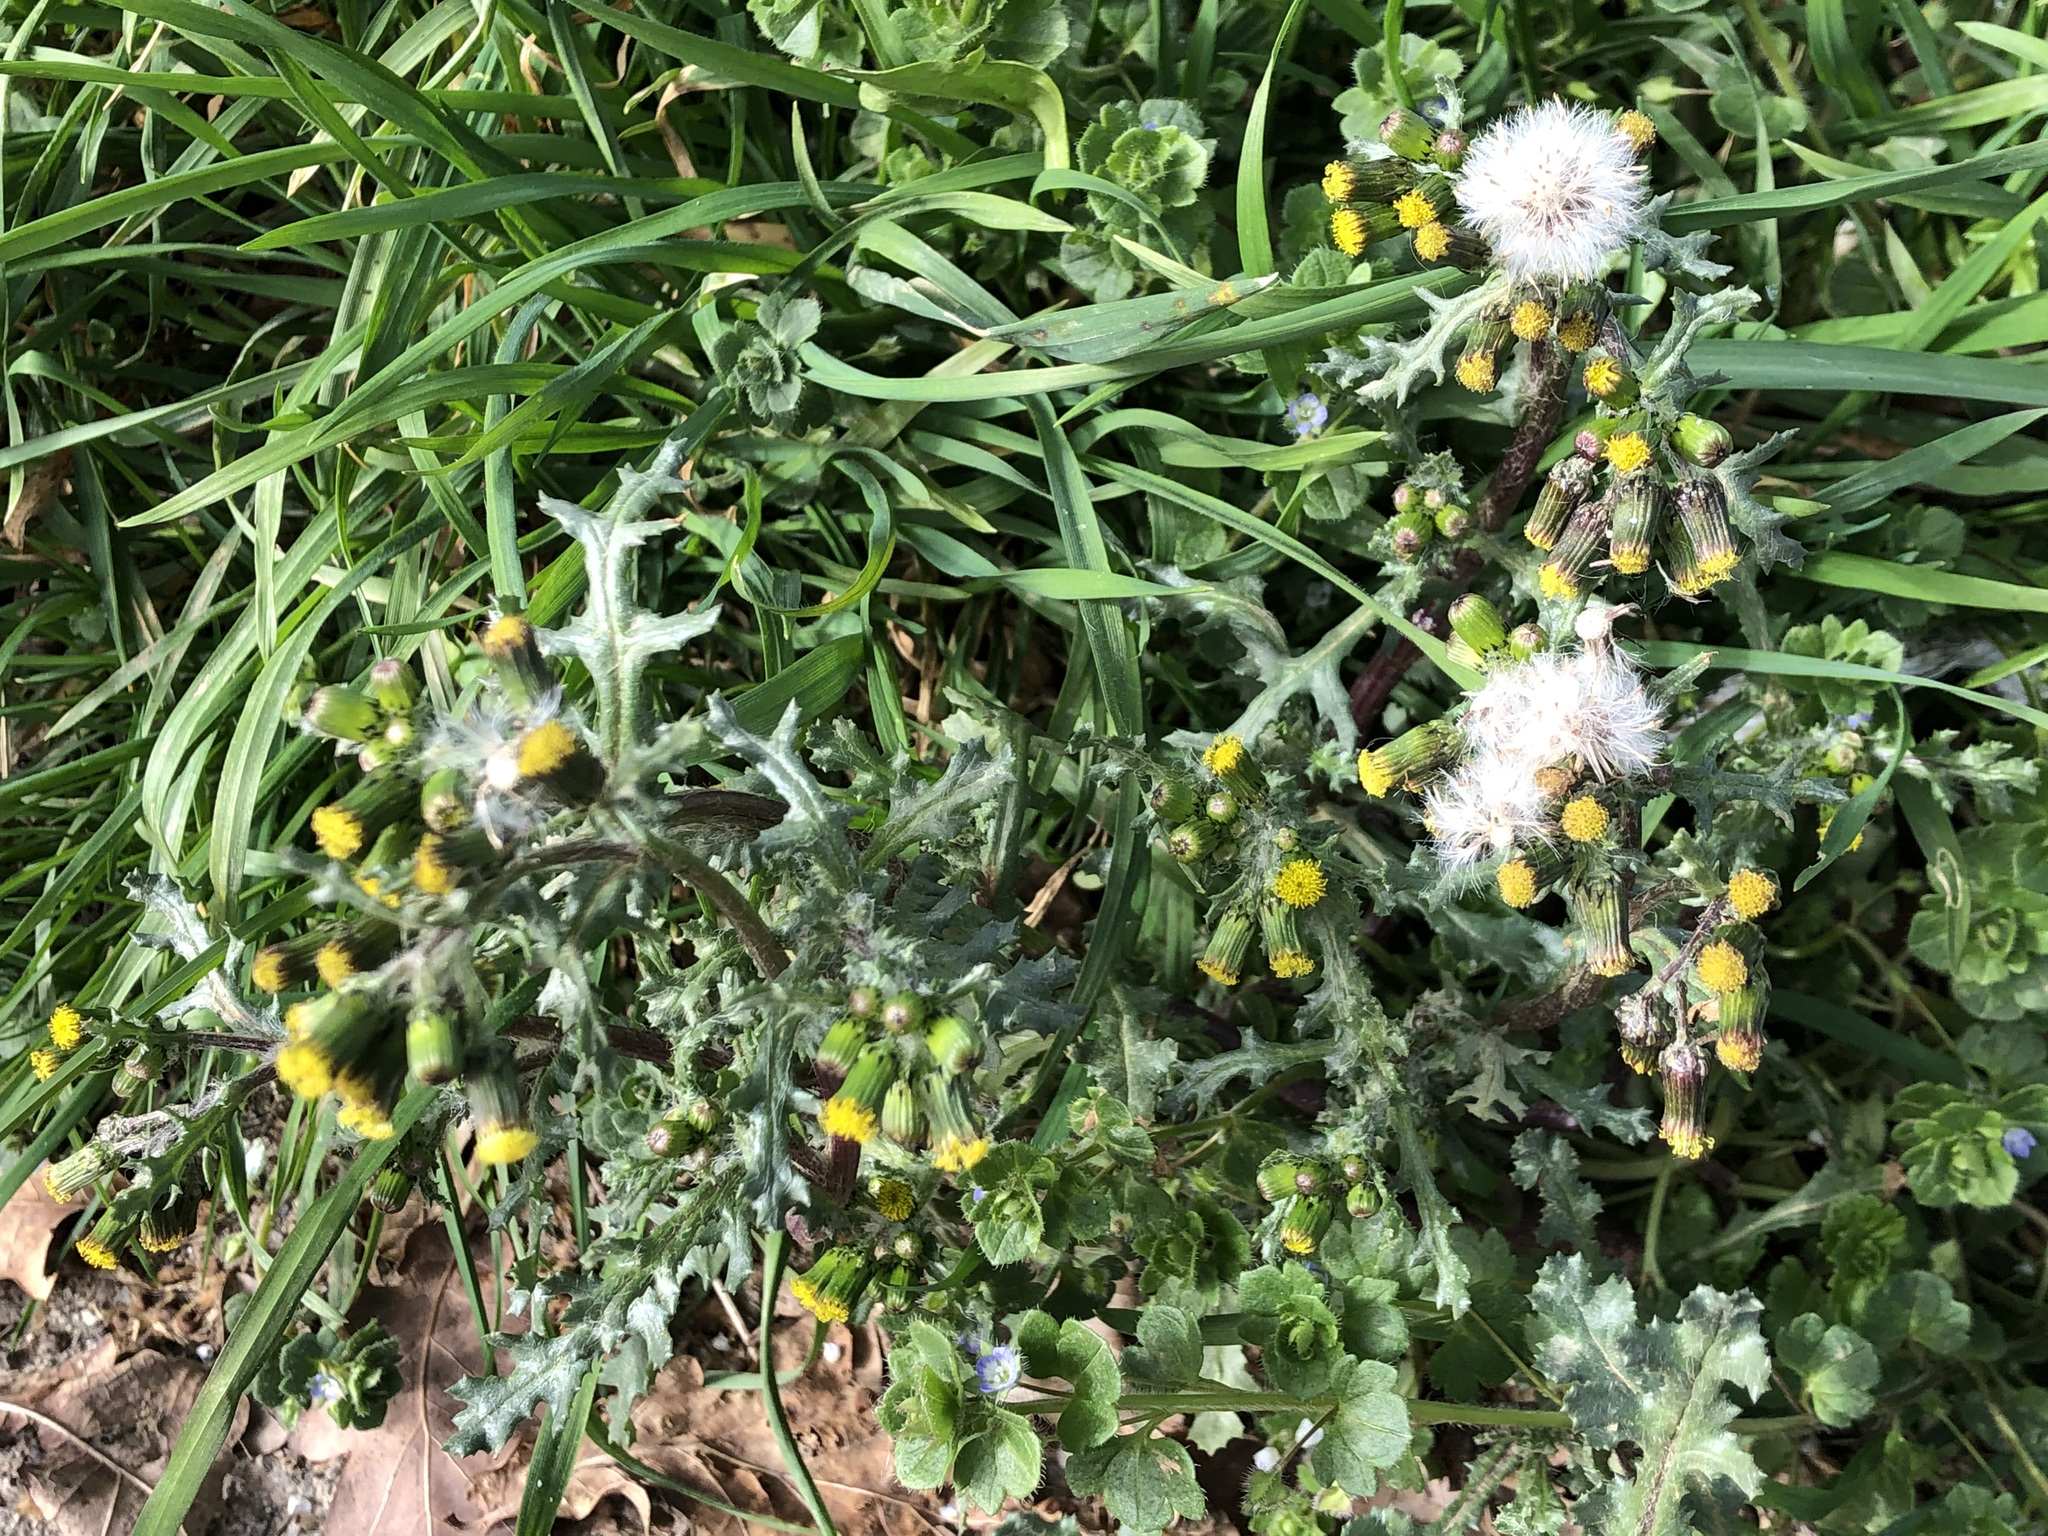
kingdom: Plantae
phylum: Tracheophyta
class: Magnoliopsida
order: Asterales
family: Asteraceae
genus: Senecio
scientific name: Senecio vulgaris
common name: Old-man-in-the-spring
